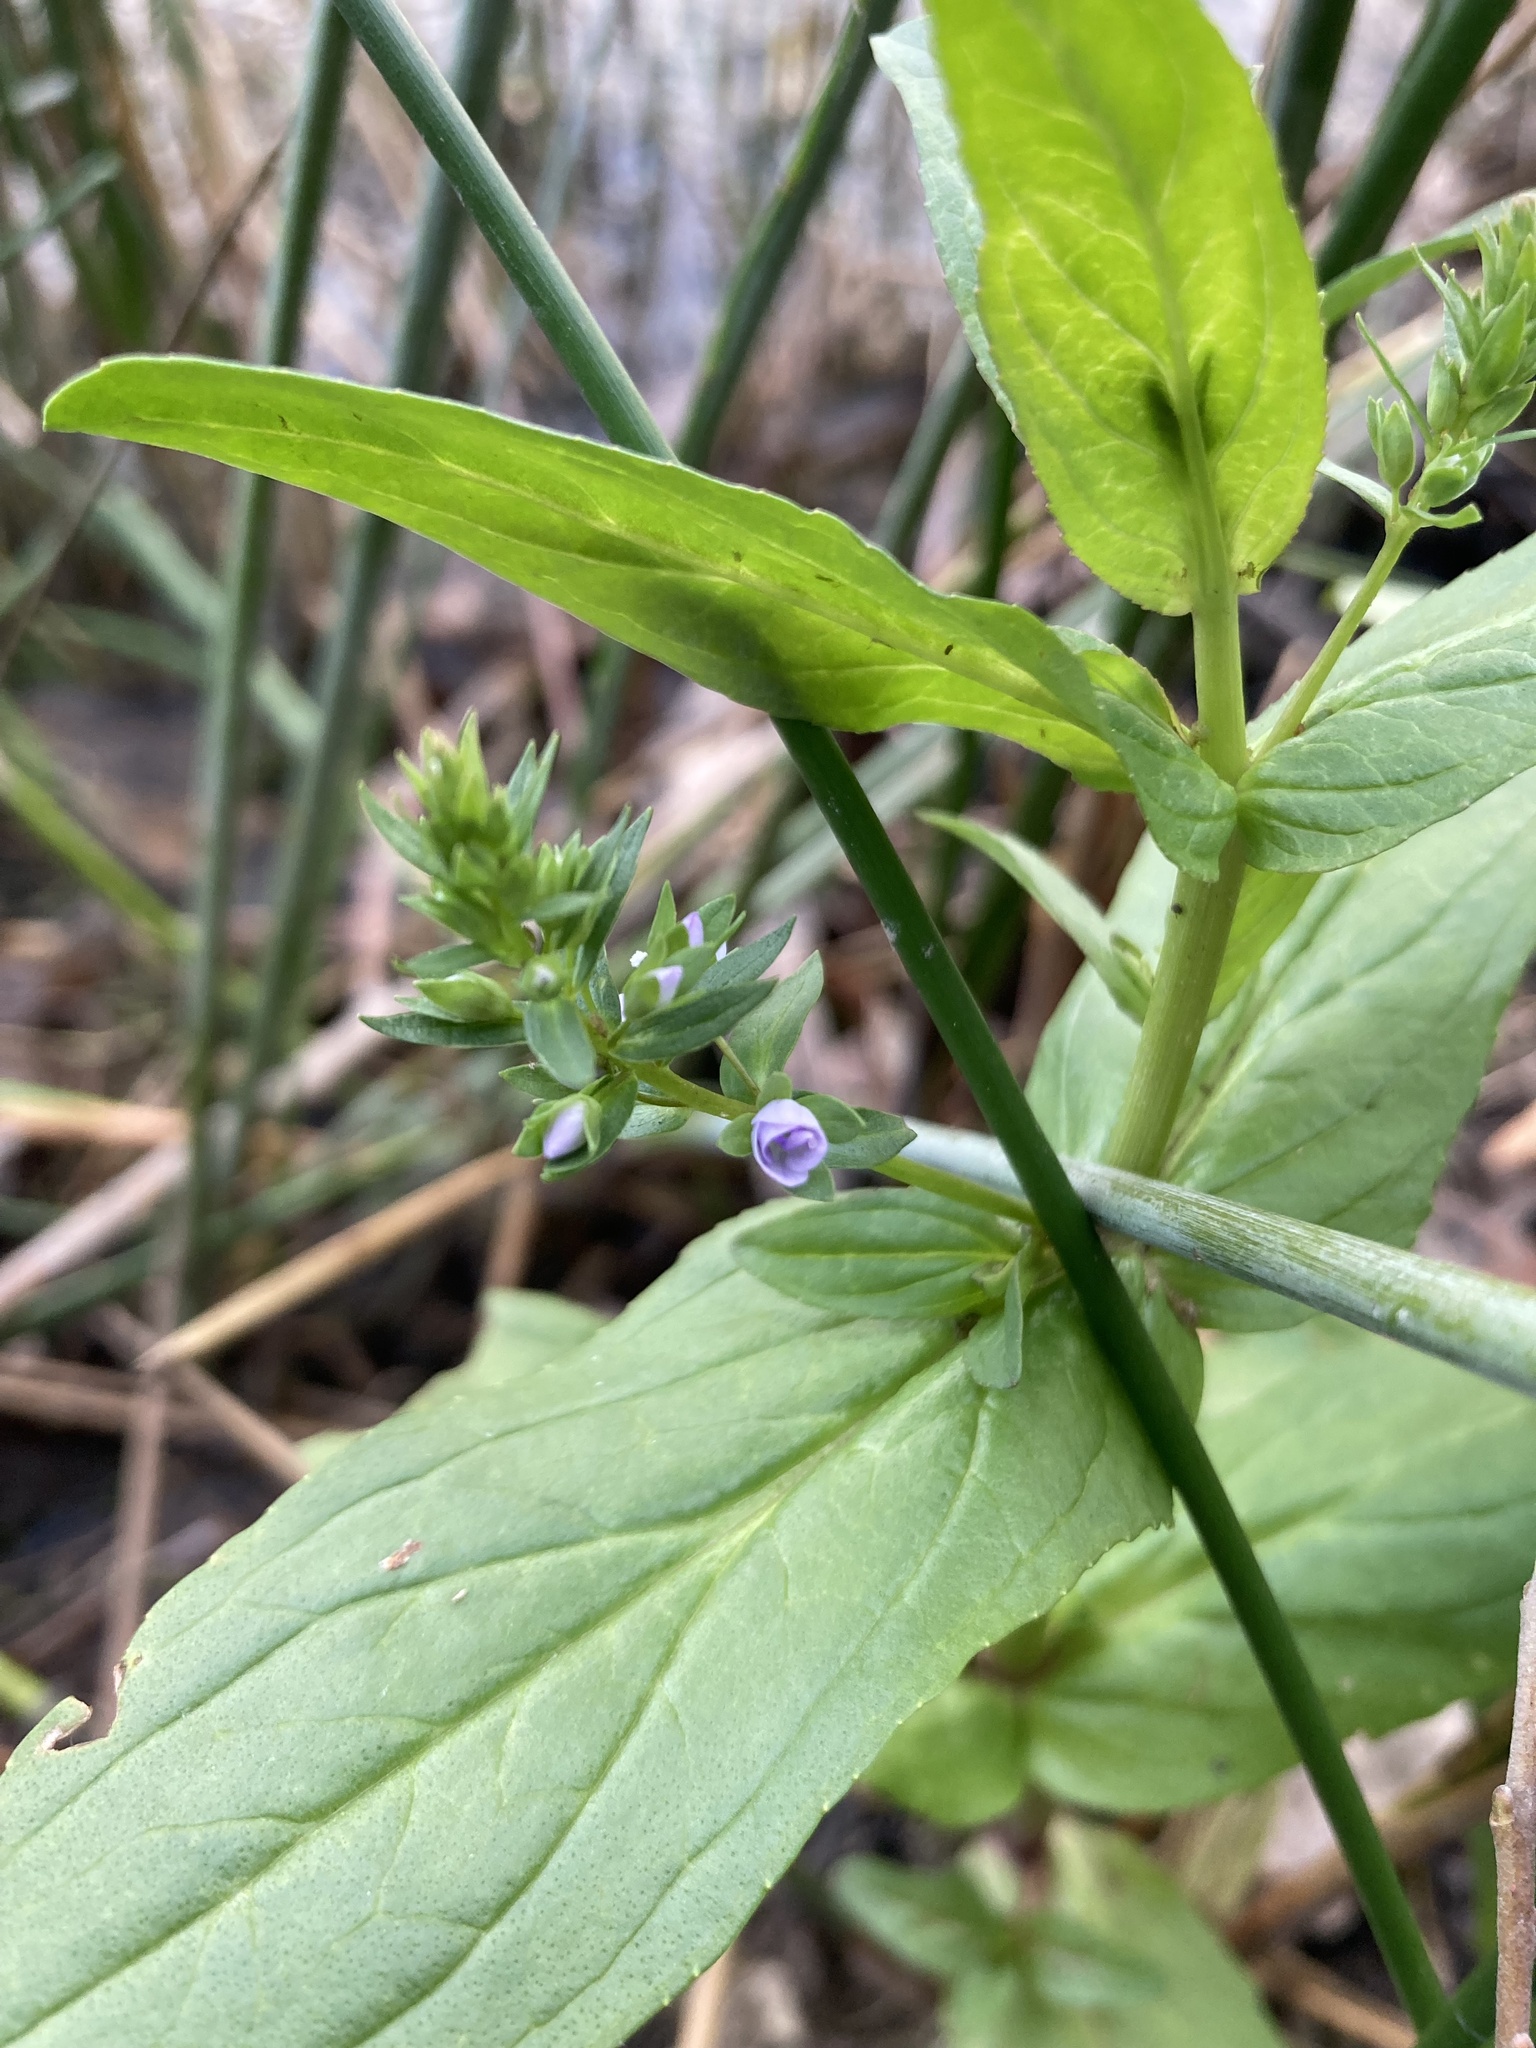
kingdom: Plantae
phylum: Tracheophyta
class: Magnoliopsida
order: Lamiales
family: Plantaginaceae
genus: Veronica
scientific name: Veronica anagallis-aquatica
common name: Water speedwell
